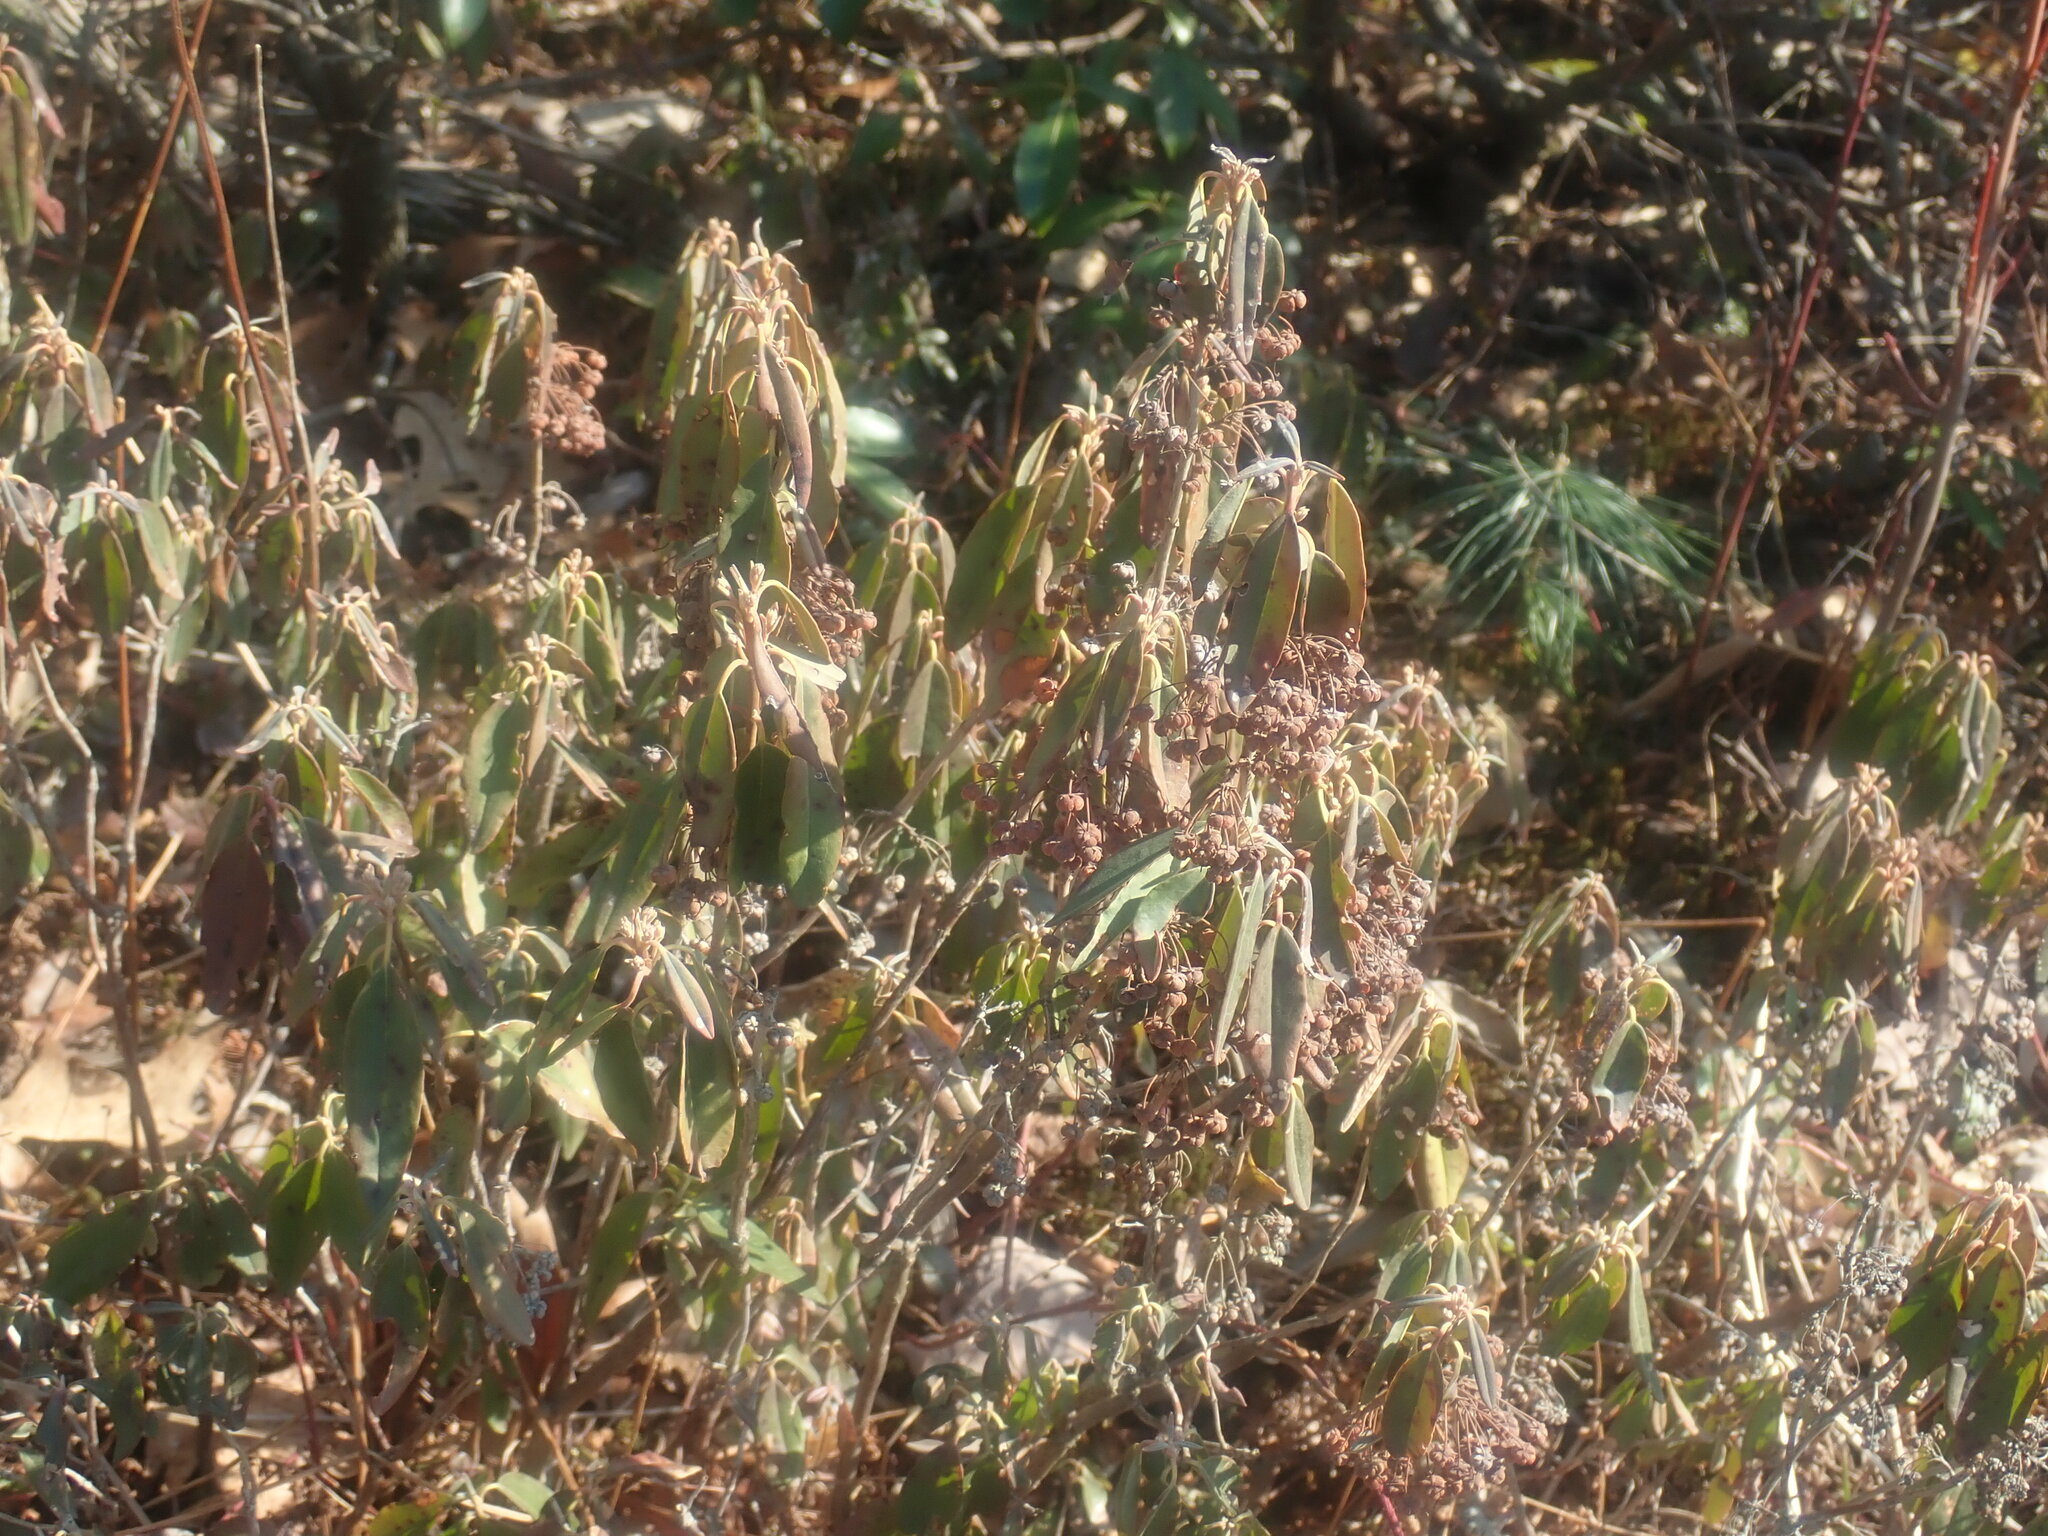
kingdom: Plantae
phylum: Tracheophyta
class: Magnoliopsida
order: Ericales
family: Ericaceae
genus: Kalmia
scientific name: Kalmia angustifolia
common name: Sheep-laurel
